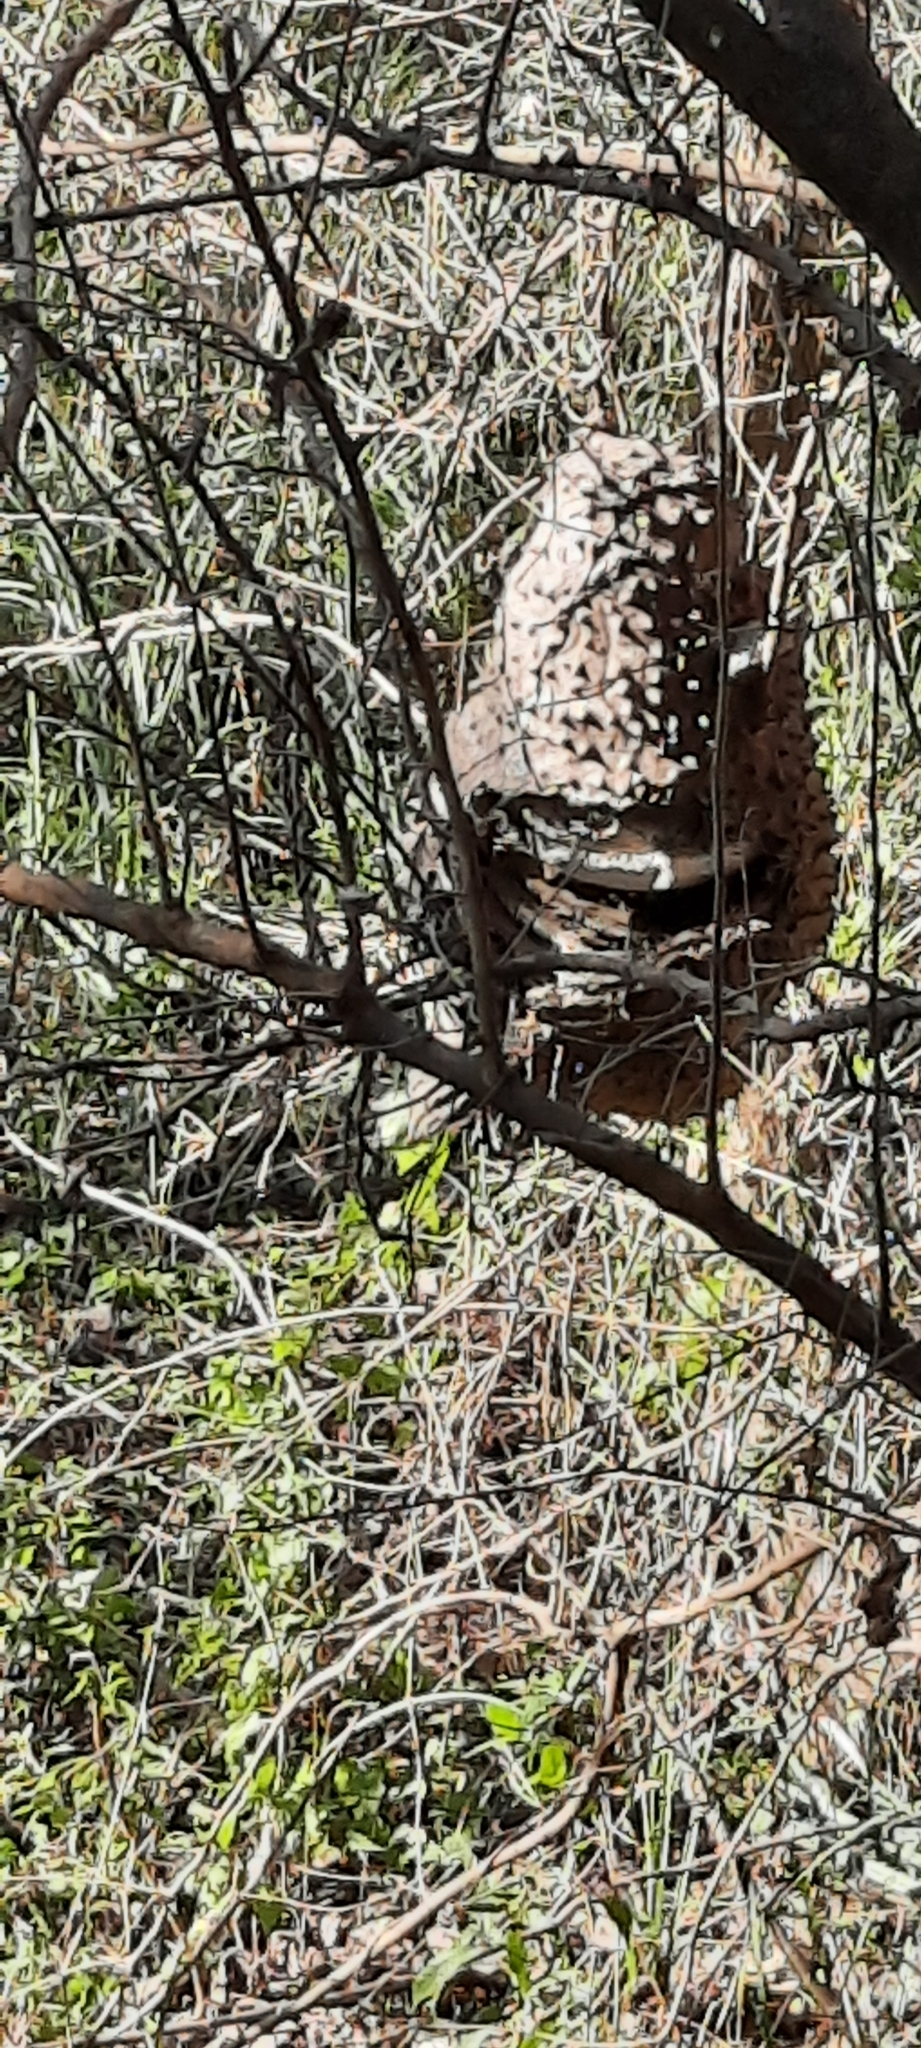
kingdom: Animalia
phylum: Arthropoda
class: Insecta
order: Hymenoptera
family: Eumenidae
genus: Polybia
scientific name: Polybia scutellaris
